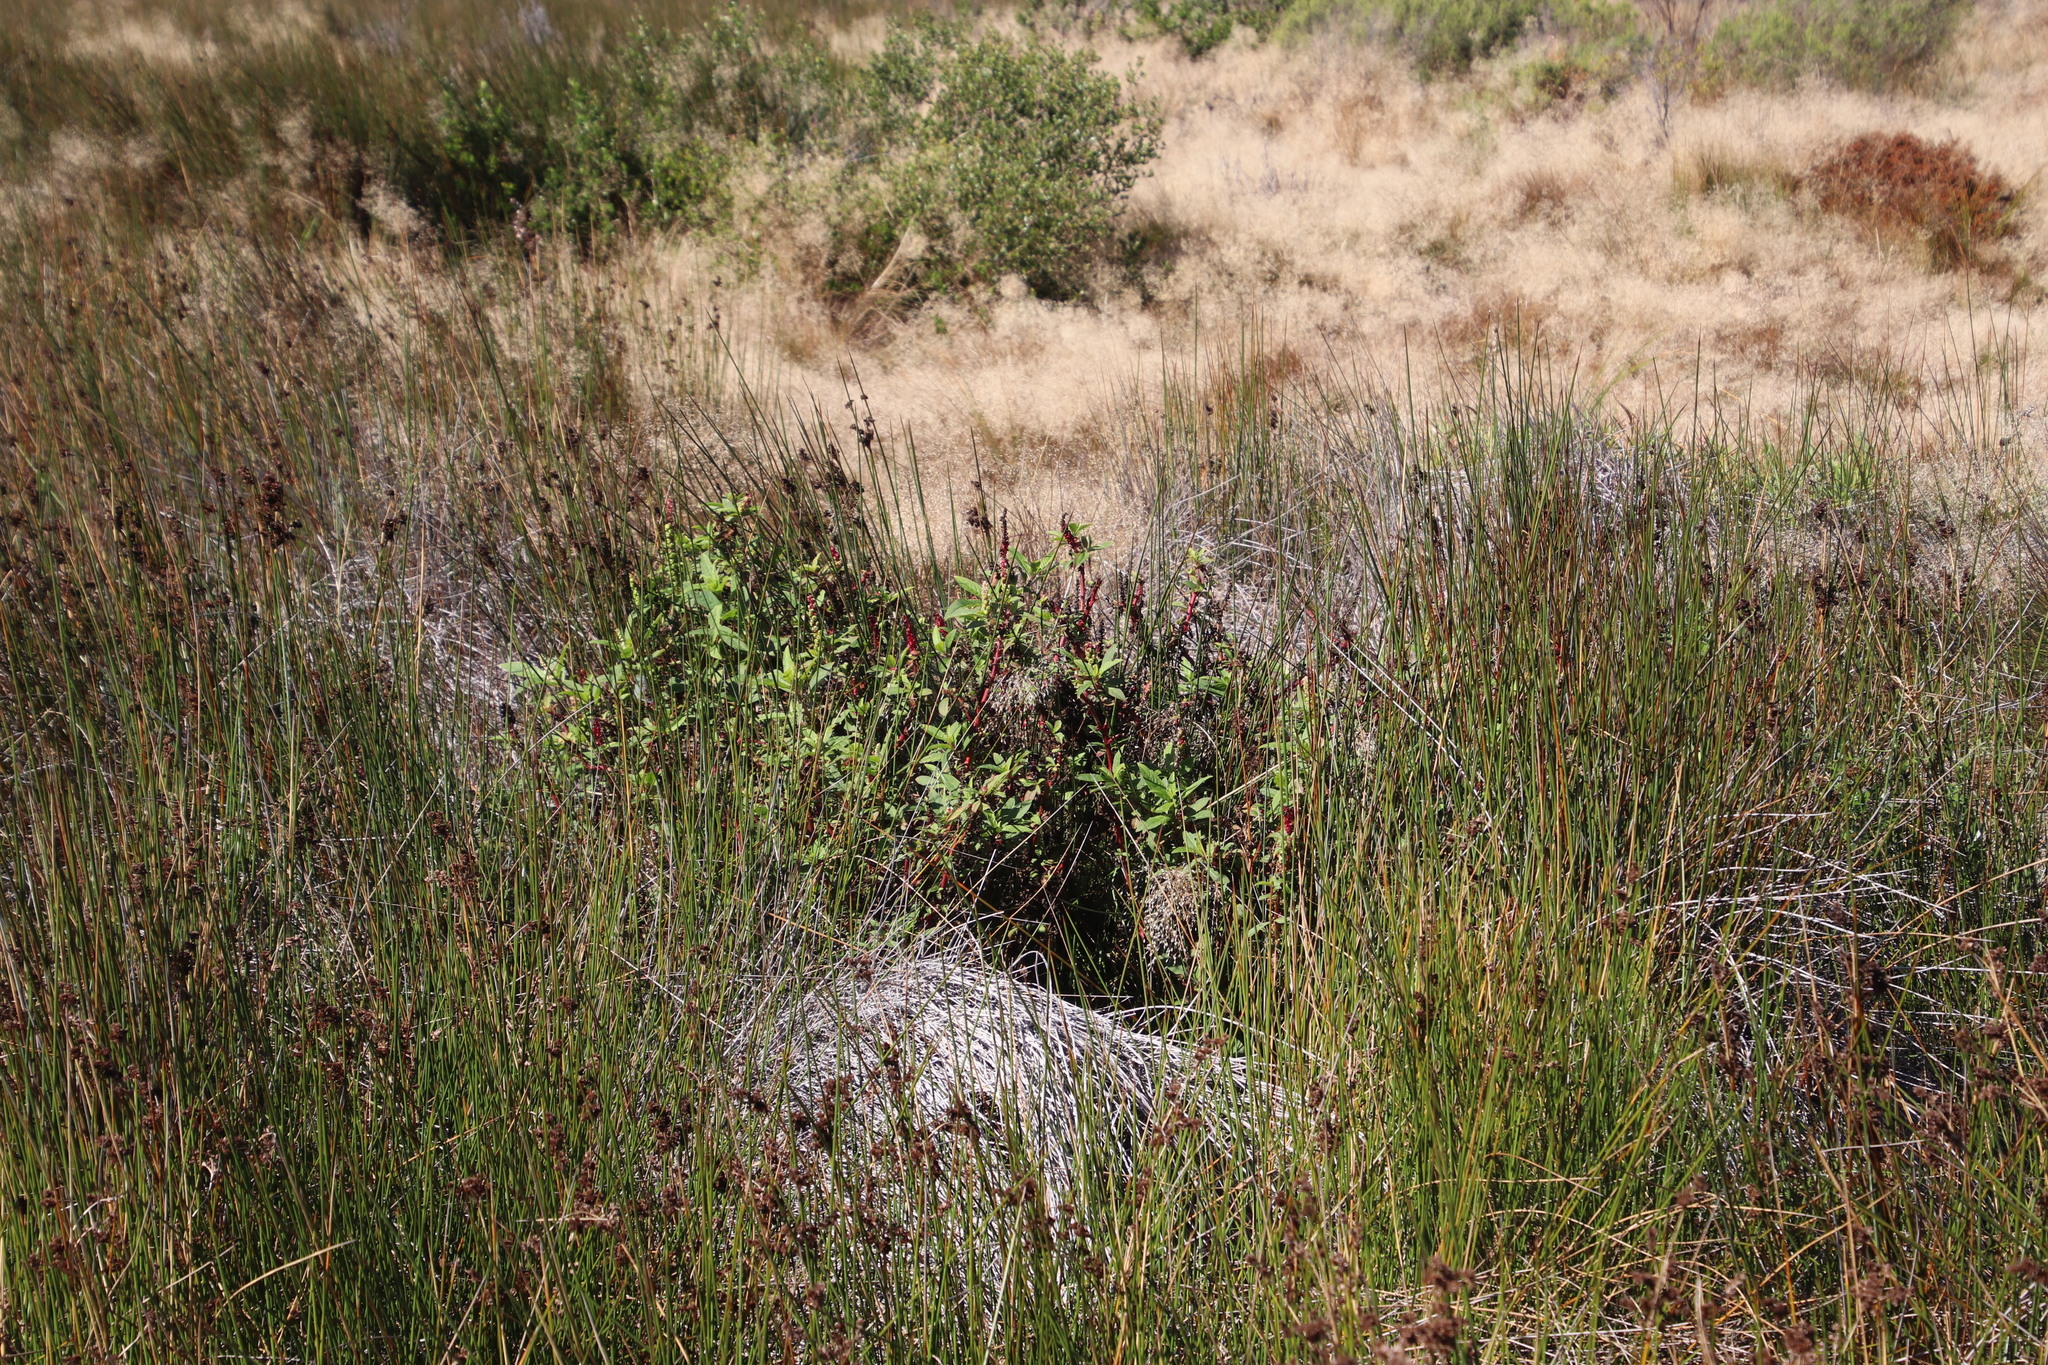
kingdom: Plantae
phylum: Tracheophyta
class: Magnoliopsida
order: Caryophyllales
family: Phytolaccaceae
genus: Phytolacca
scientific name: Phytolacca icosandra
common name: Button pokeweed
